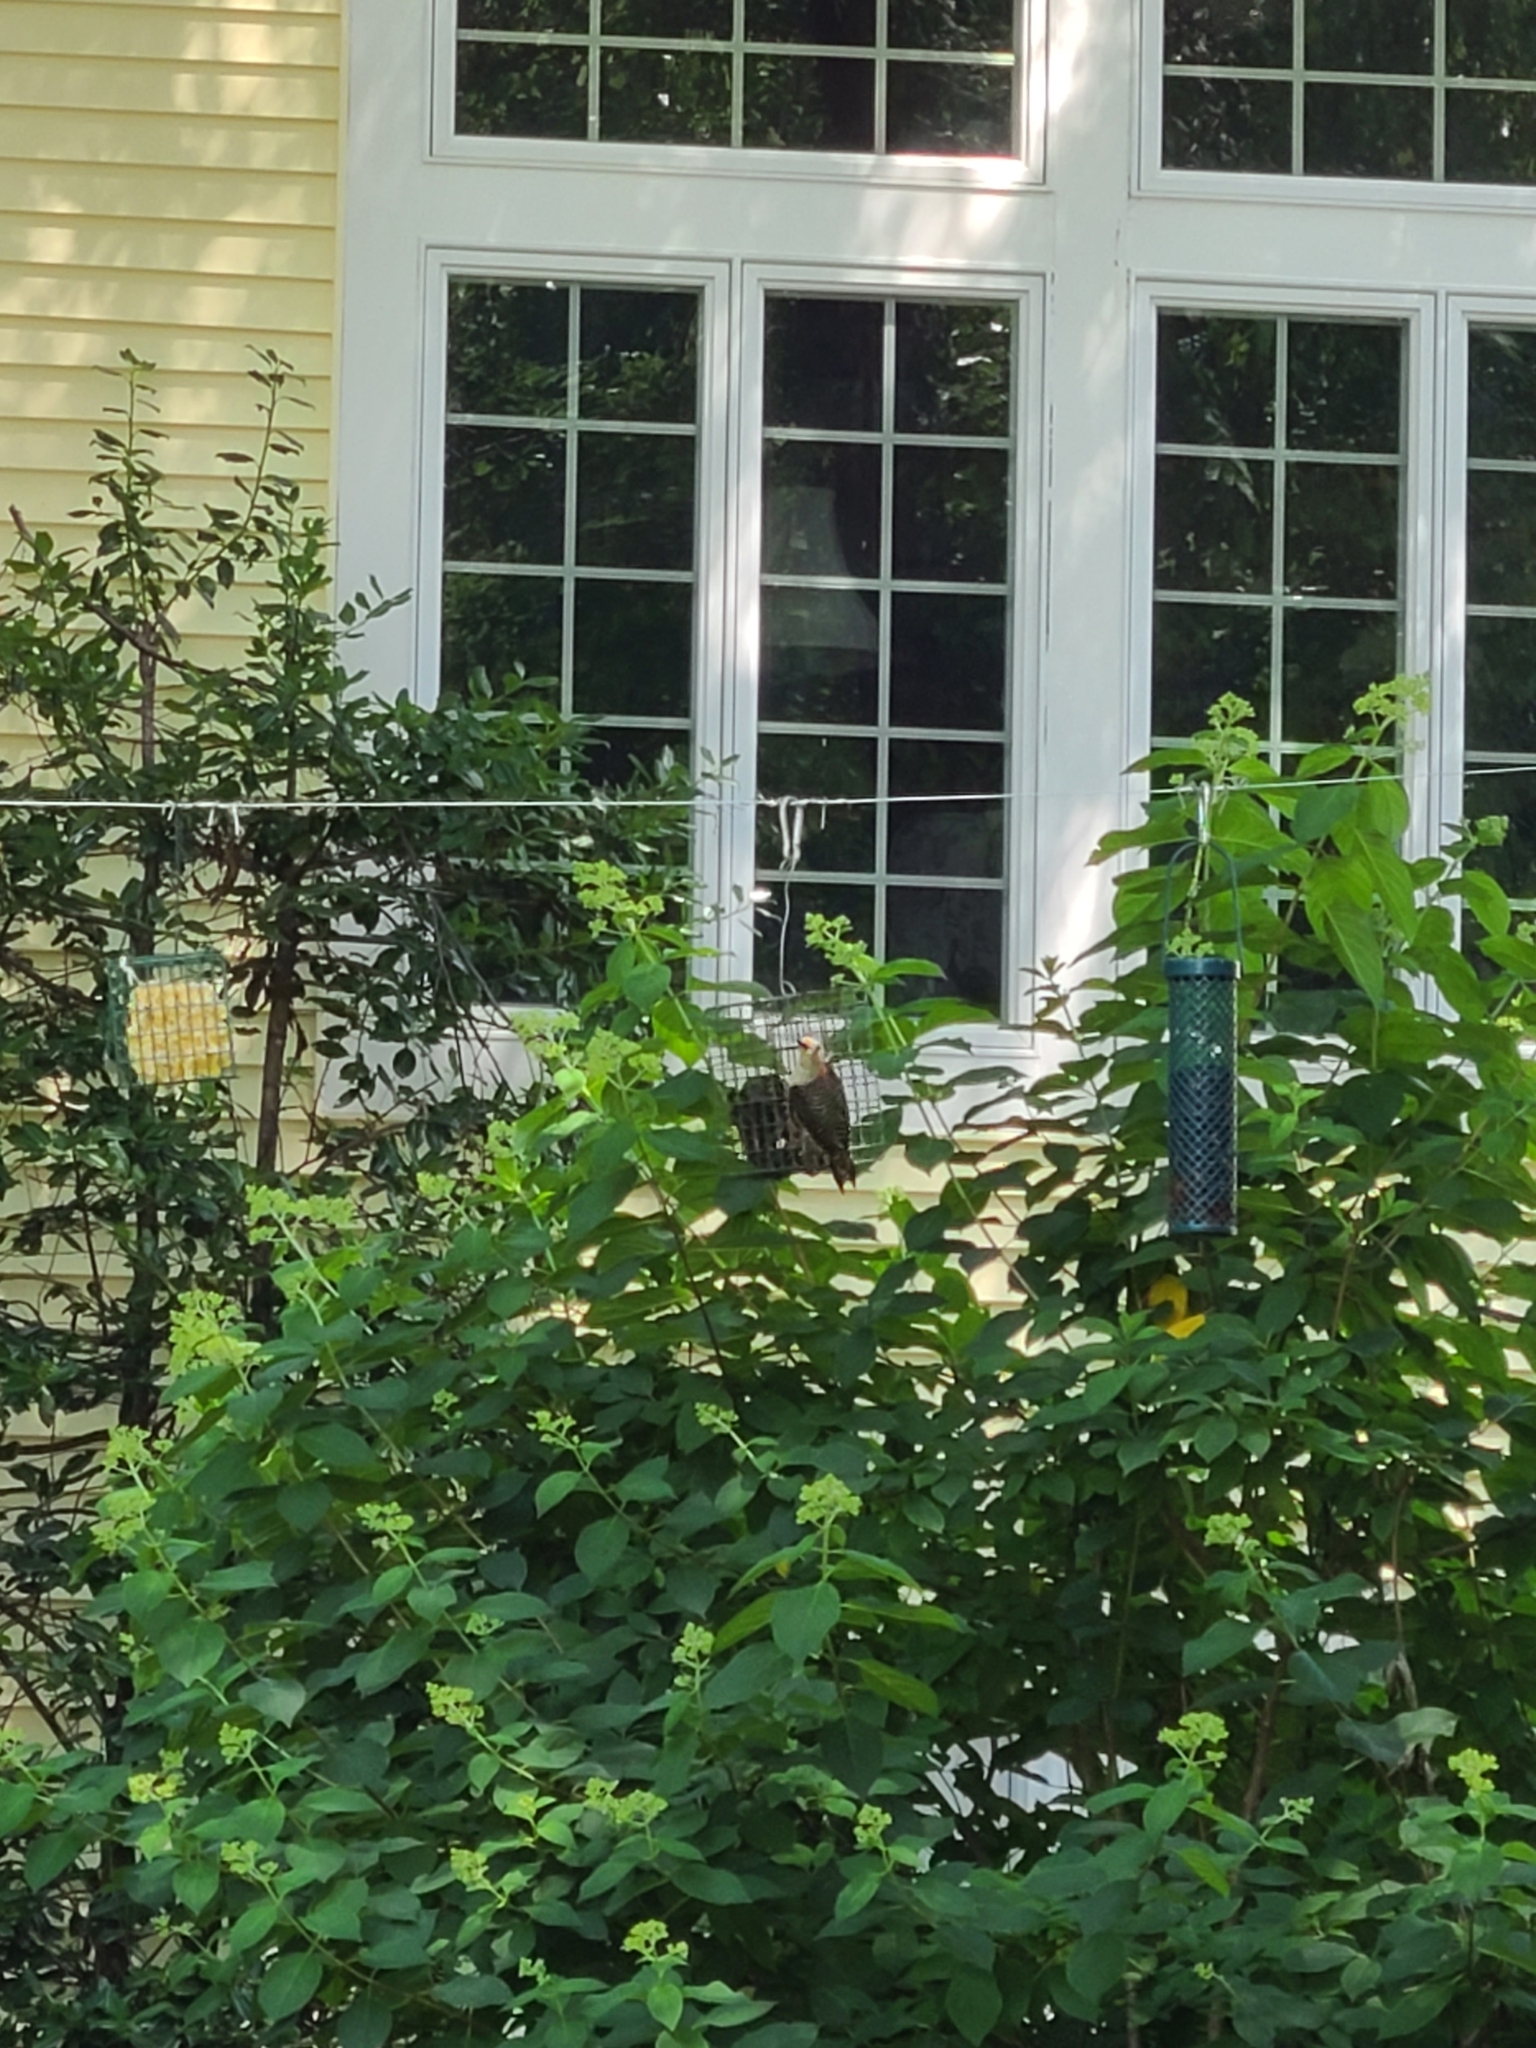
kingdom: Animalia
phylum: Chordata
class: Aves
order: Piciformes
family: Picidae
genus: Melanerpes
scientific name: Melanerpes carolinus
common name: Red-bellied woodpecker
